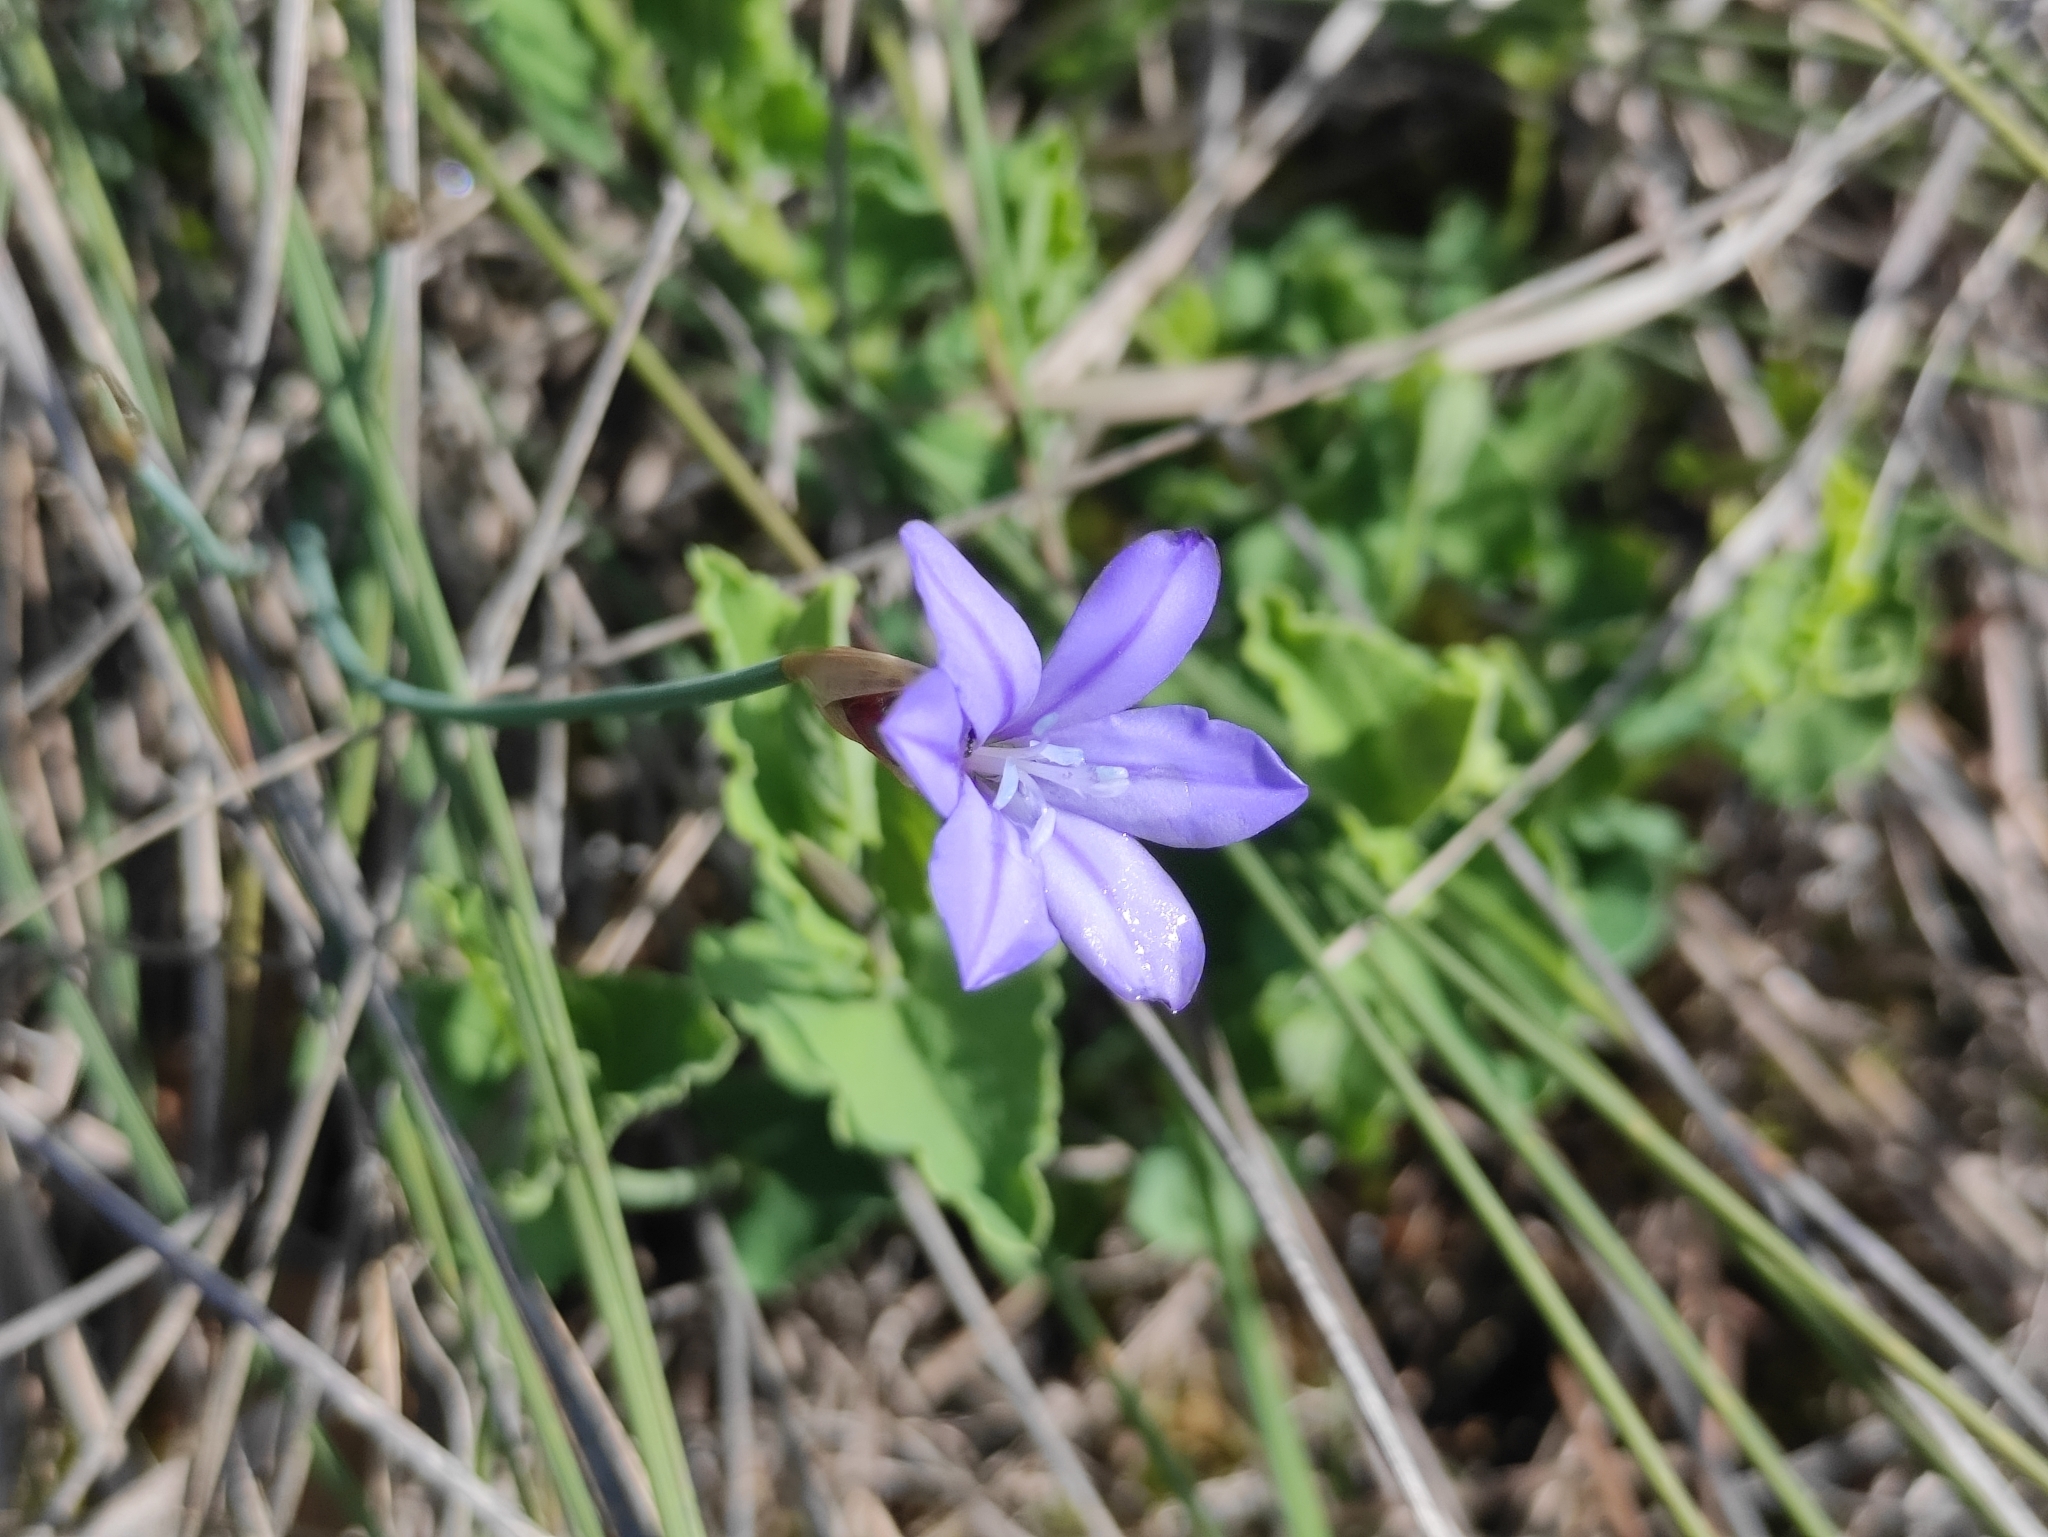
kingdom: Plantae
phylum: Tracheophyta
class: Liliopsida
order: Asparagales
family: Asparagaceae
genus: Aphyllanthes
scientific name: Aphyllanthes monspeliensis
